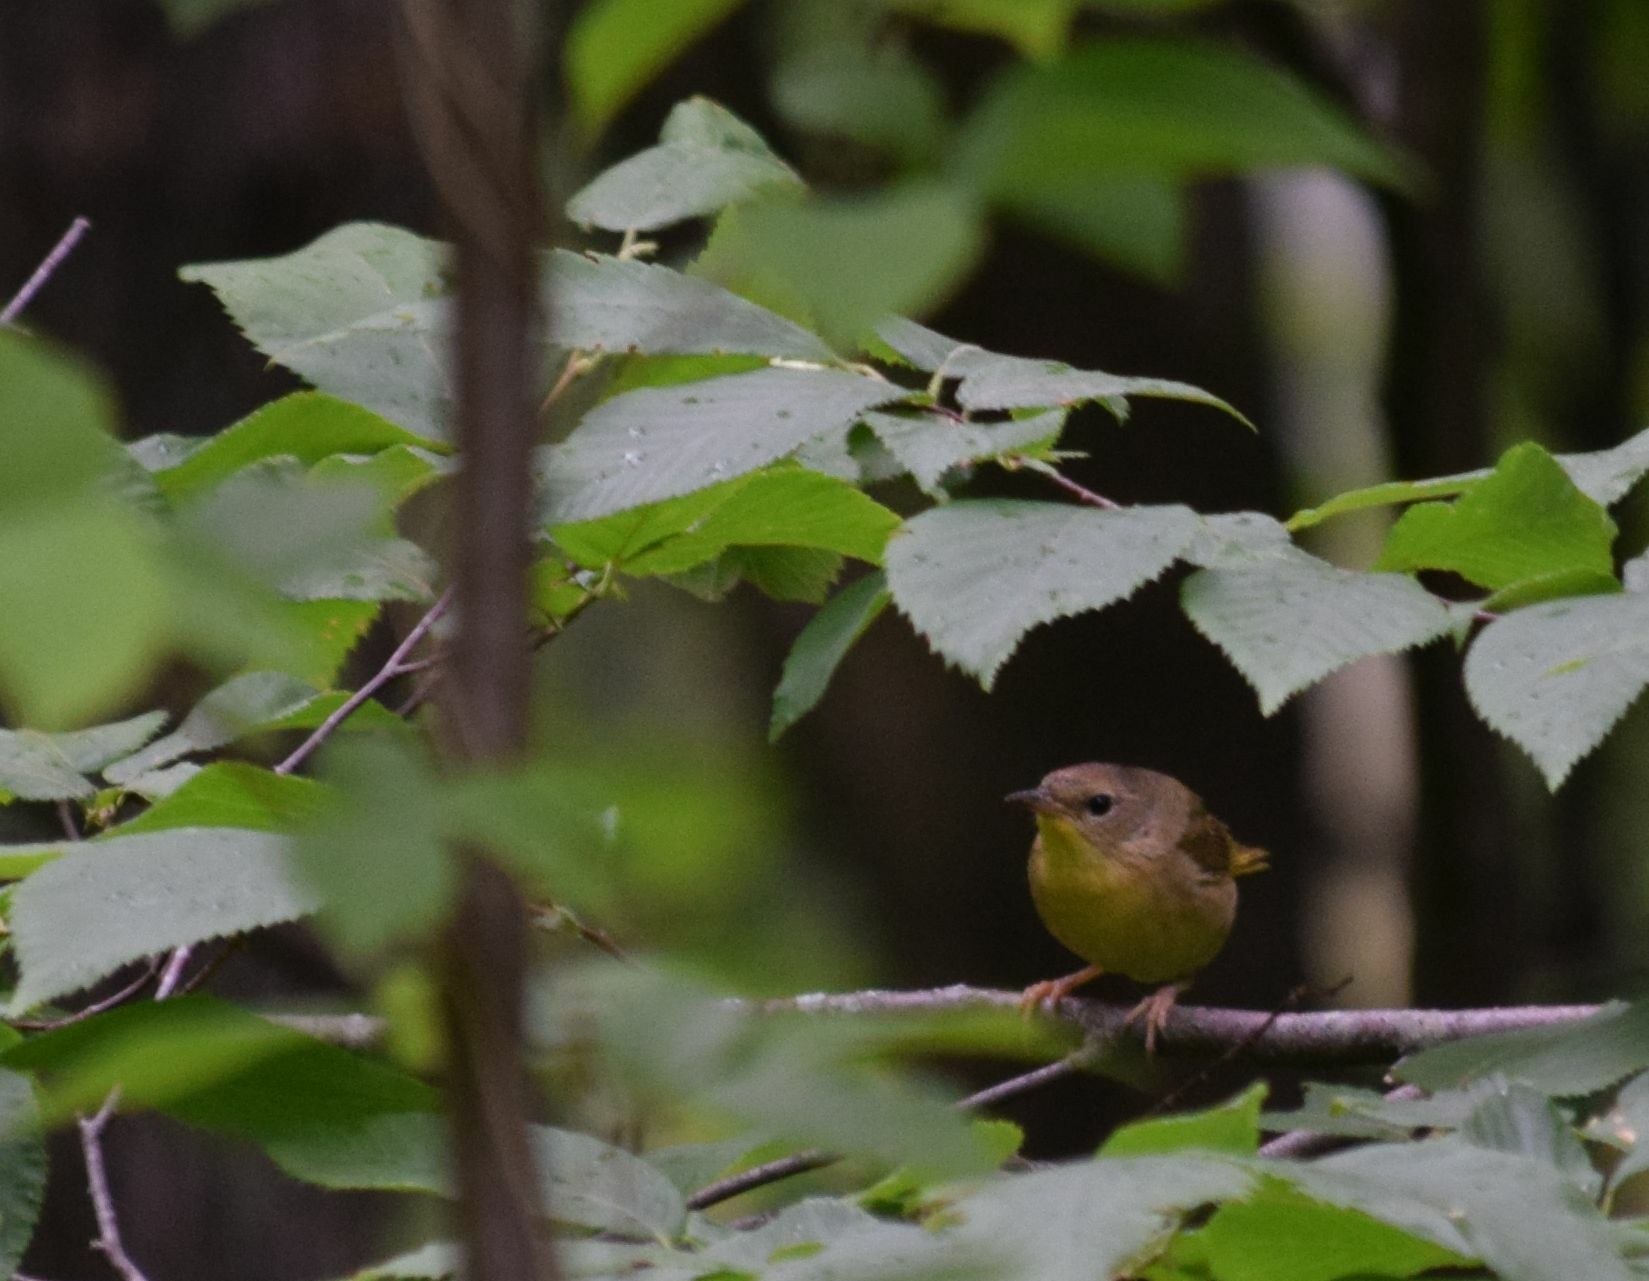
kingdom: Animalia
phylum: Chordata
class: Aves
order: Passeriformes
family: Parulidae
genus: Geothlypis
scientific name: Geothlypis trichas
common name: Common yellowthroat
